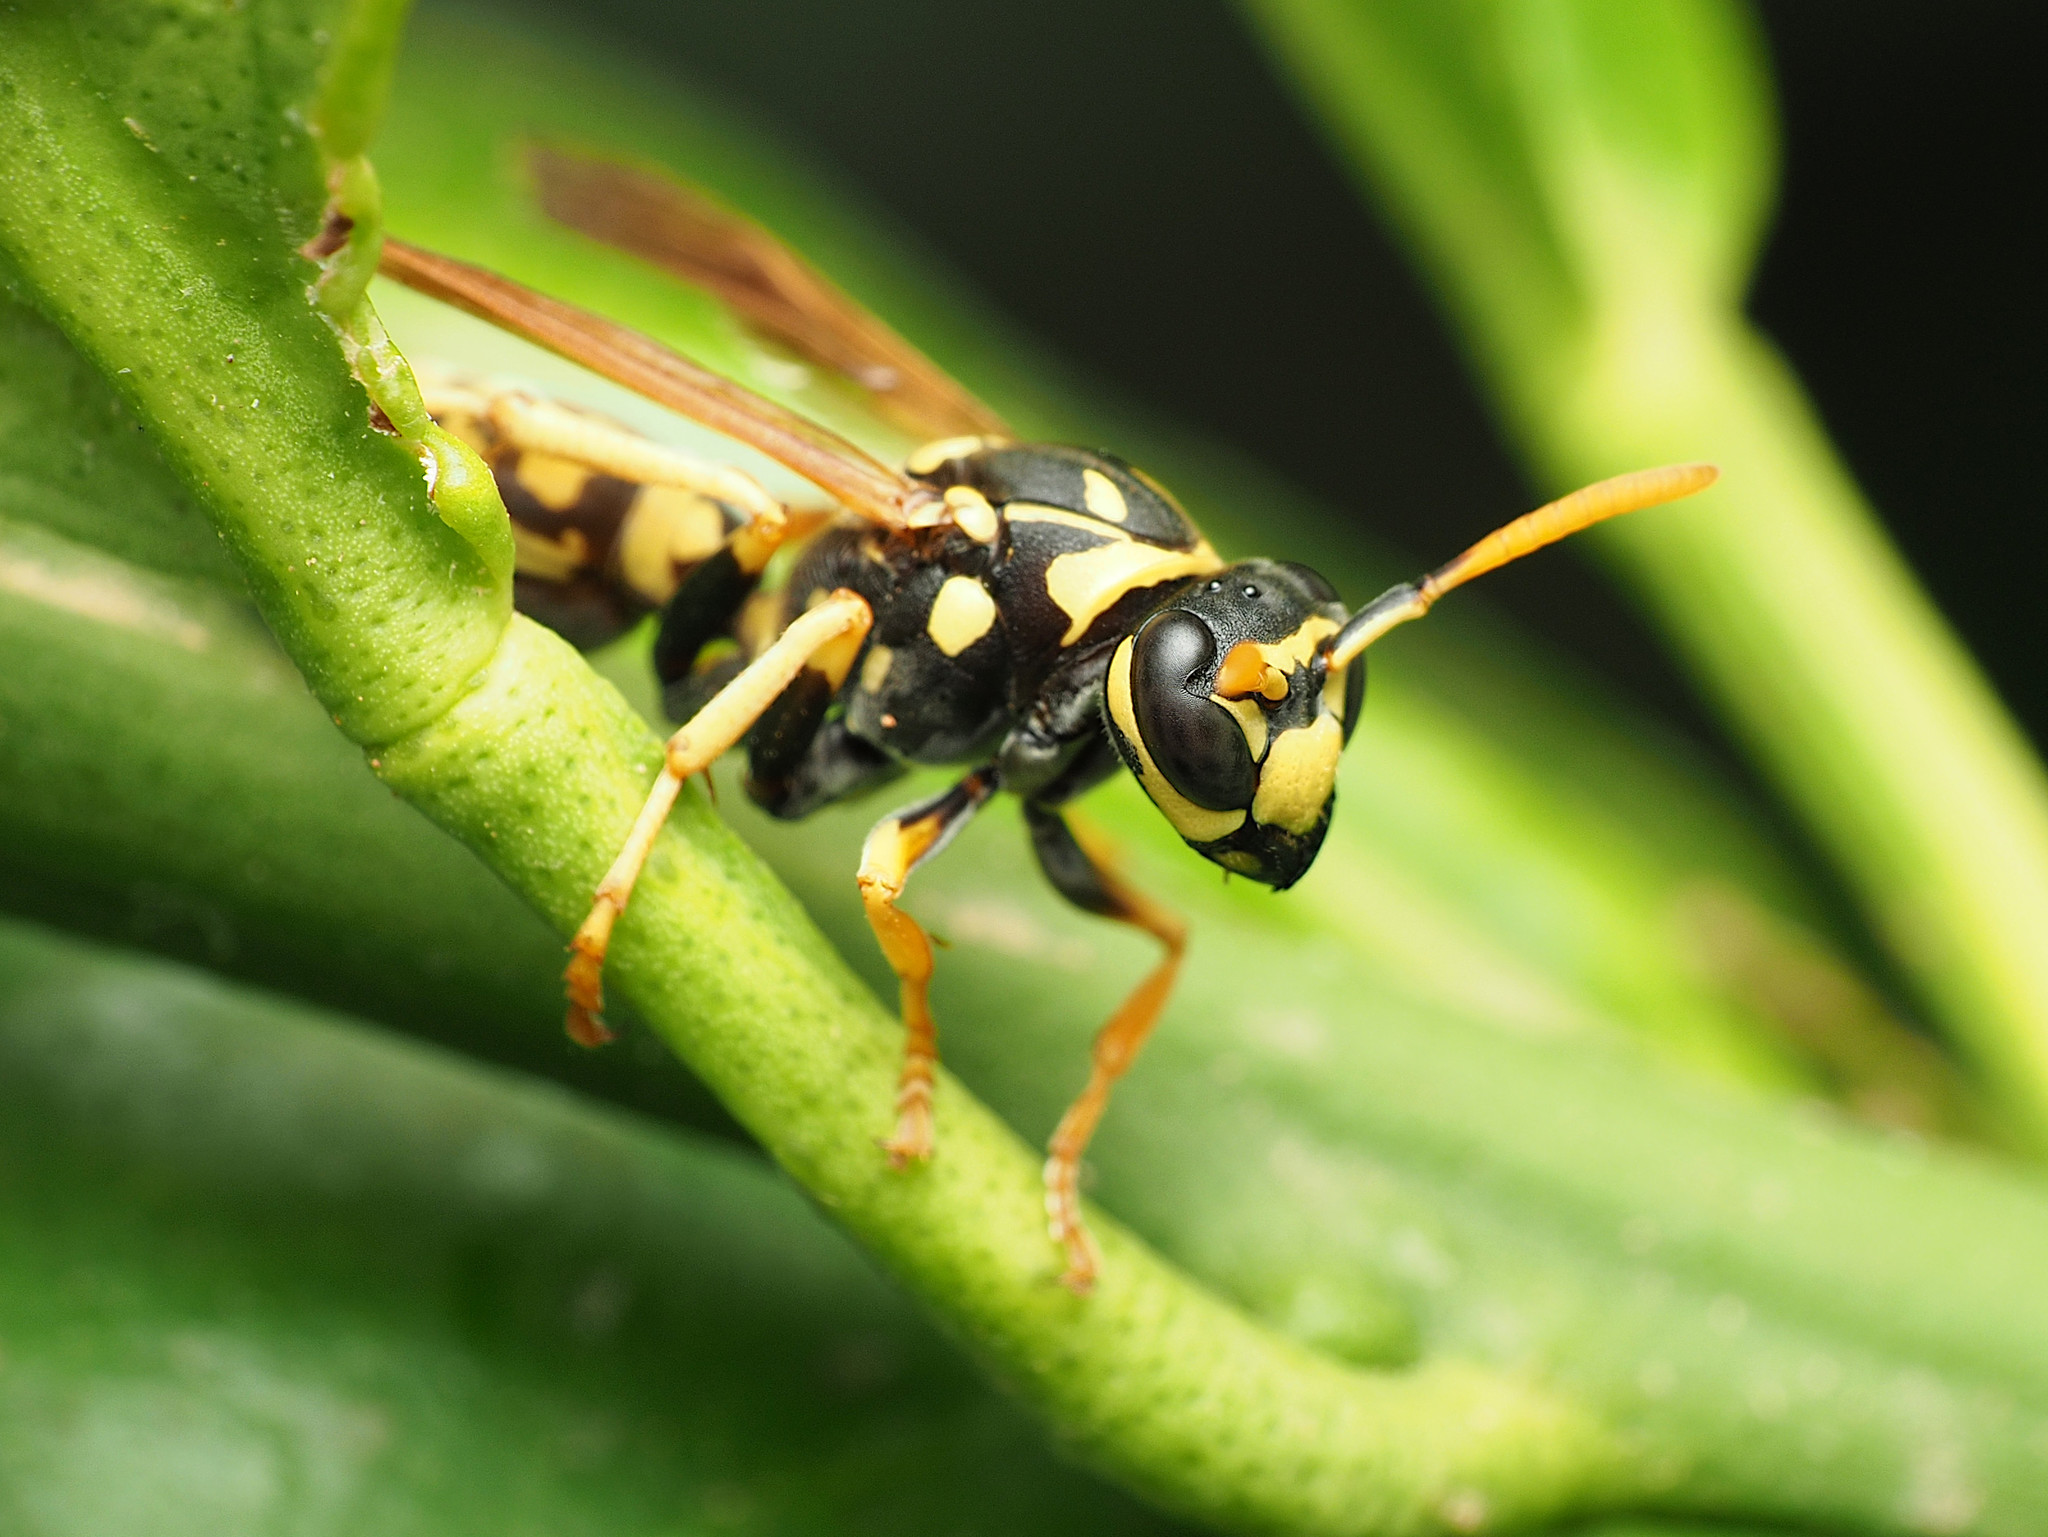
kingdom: Animalia
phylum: Arthropoda
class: Insecta
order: Hymenoptera
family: Eumenidae
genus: Polistes
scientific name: Polistes dominula
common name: Paper wasp
